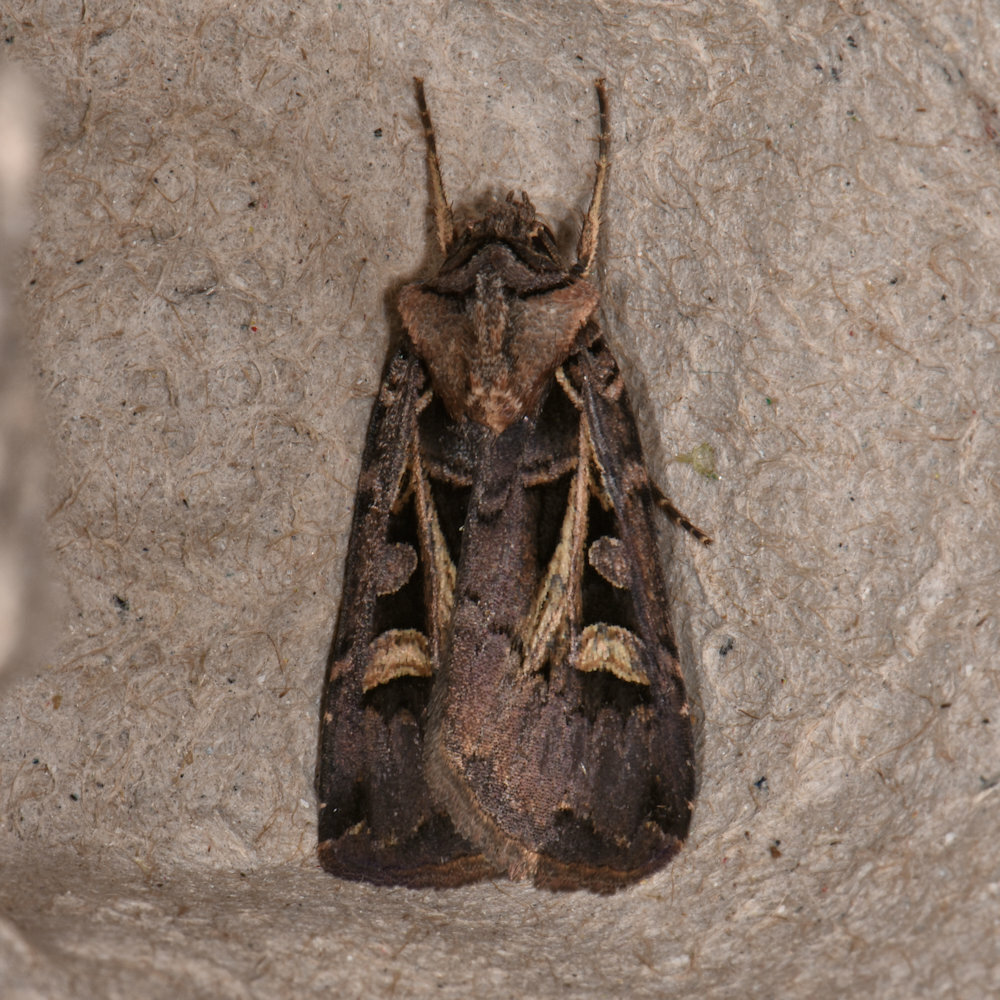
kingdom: Animalia
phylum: Arthropoda
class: Insecta
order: Lepidoptera
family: Noctuidae
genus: Feltia
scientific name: Feltia herilis
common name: Master's dart
